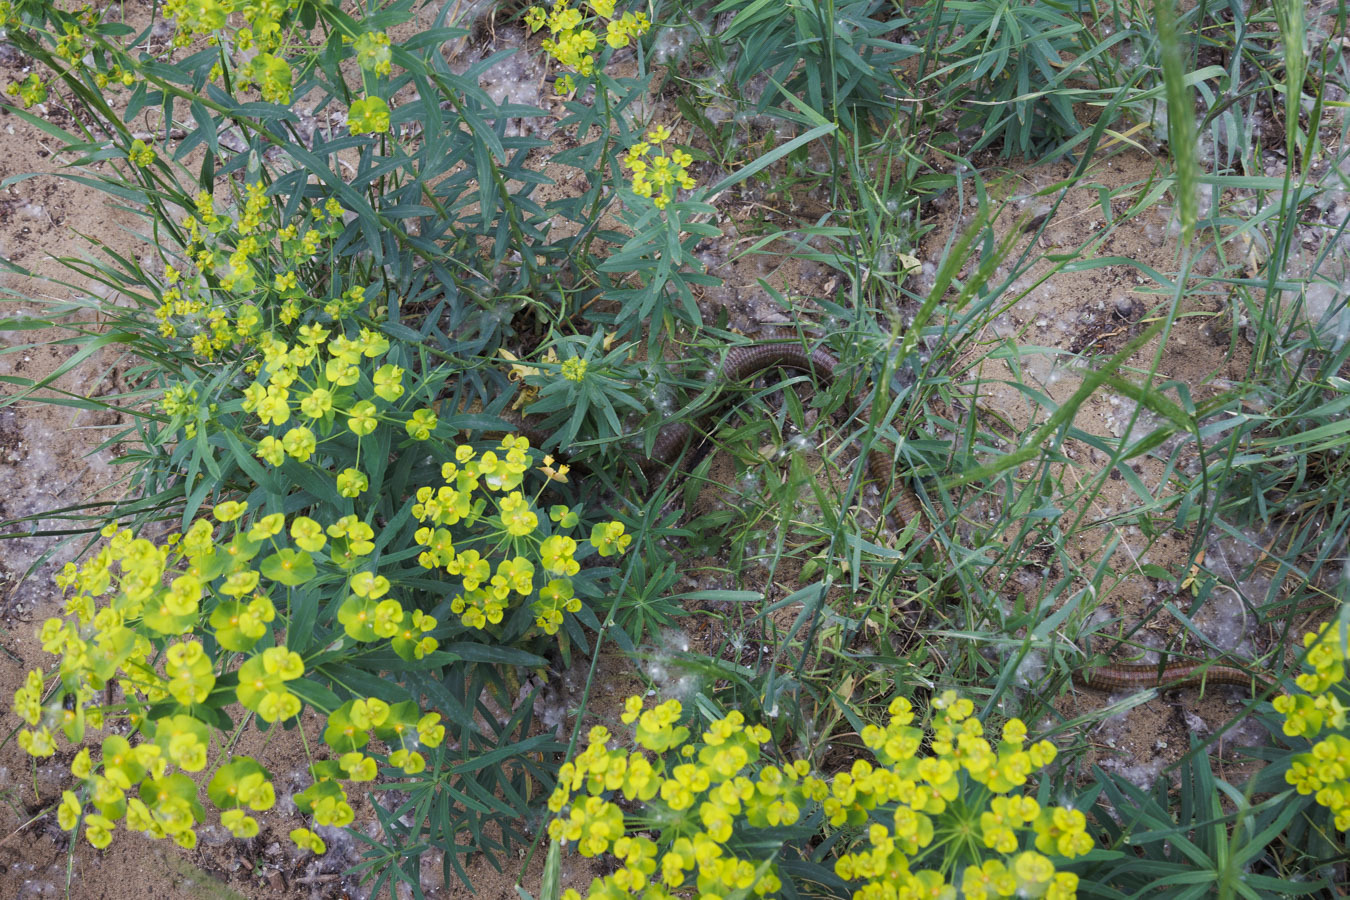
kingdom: Animalia
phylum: Chordata
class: Squamata
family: Anguidae
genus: Pseudopus
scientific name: Pseudopus apodus
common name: European glass lizard
